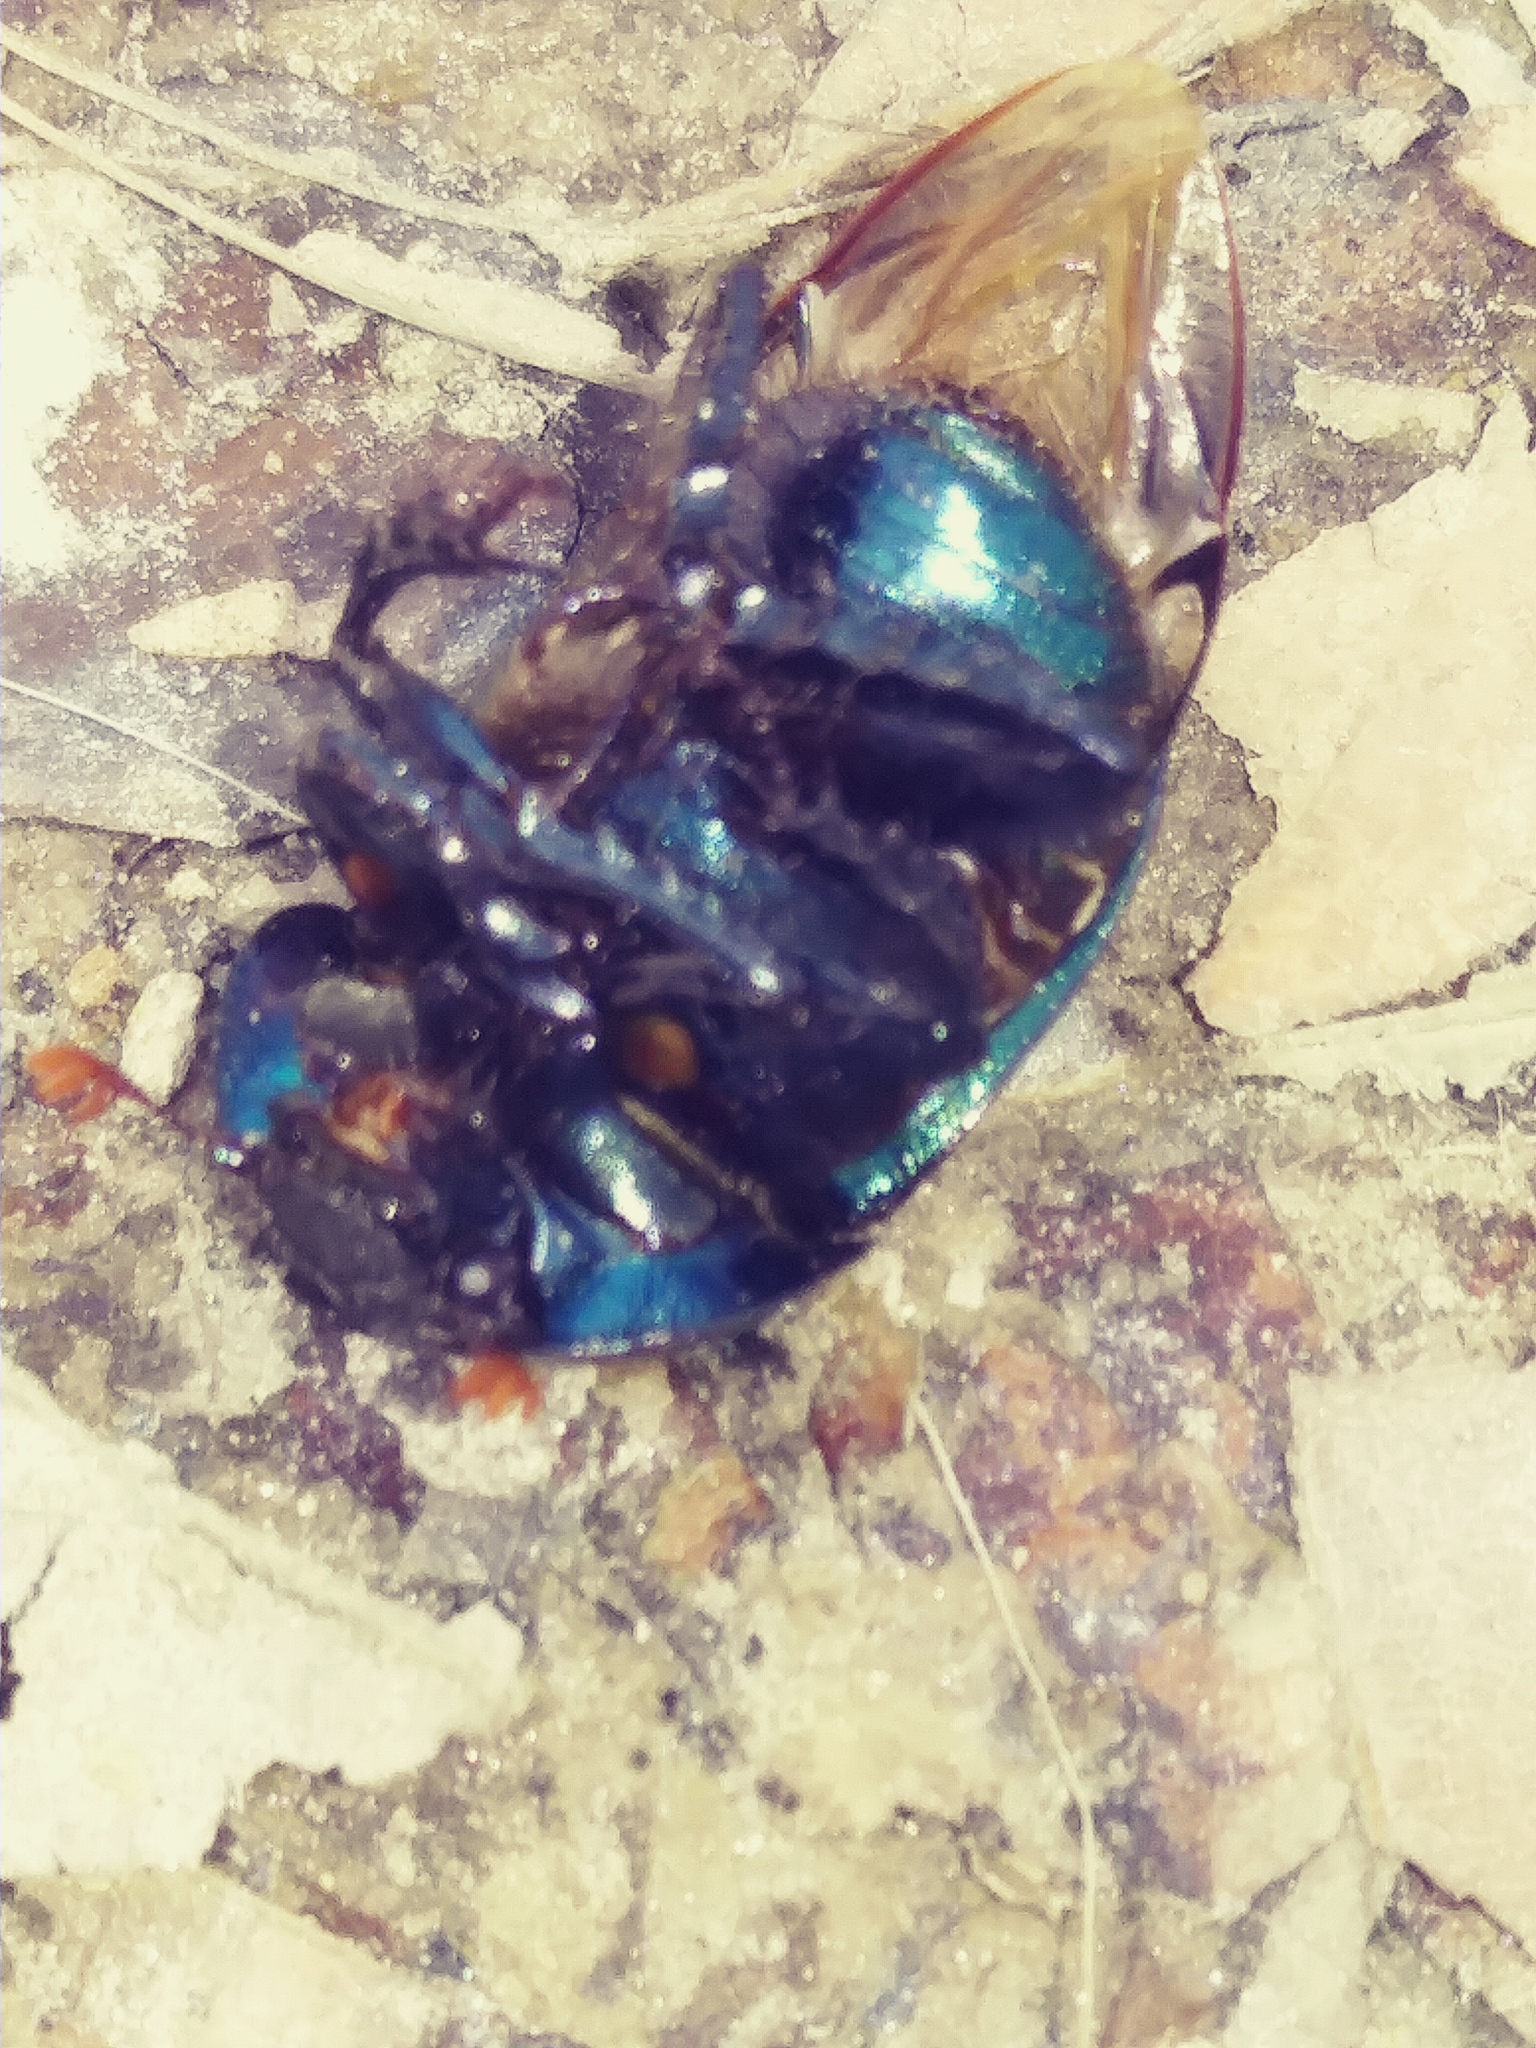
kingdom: Animalia
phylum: Arthropoda
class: Insecta
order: Coleoptera
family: Geotrupidae
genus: Cnemotrupes
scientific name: Cnemotrupes semiopacus
